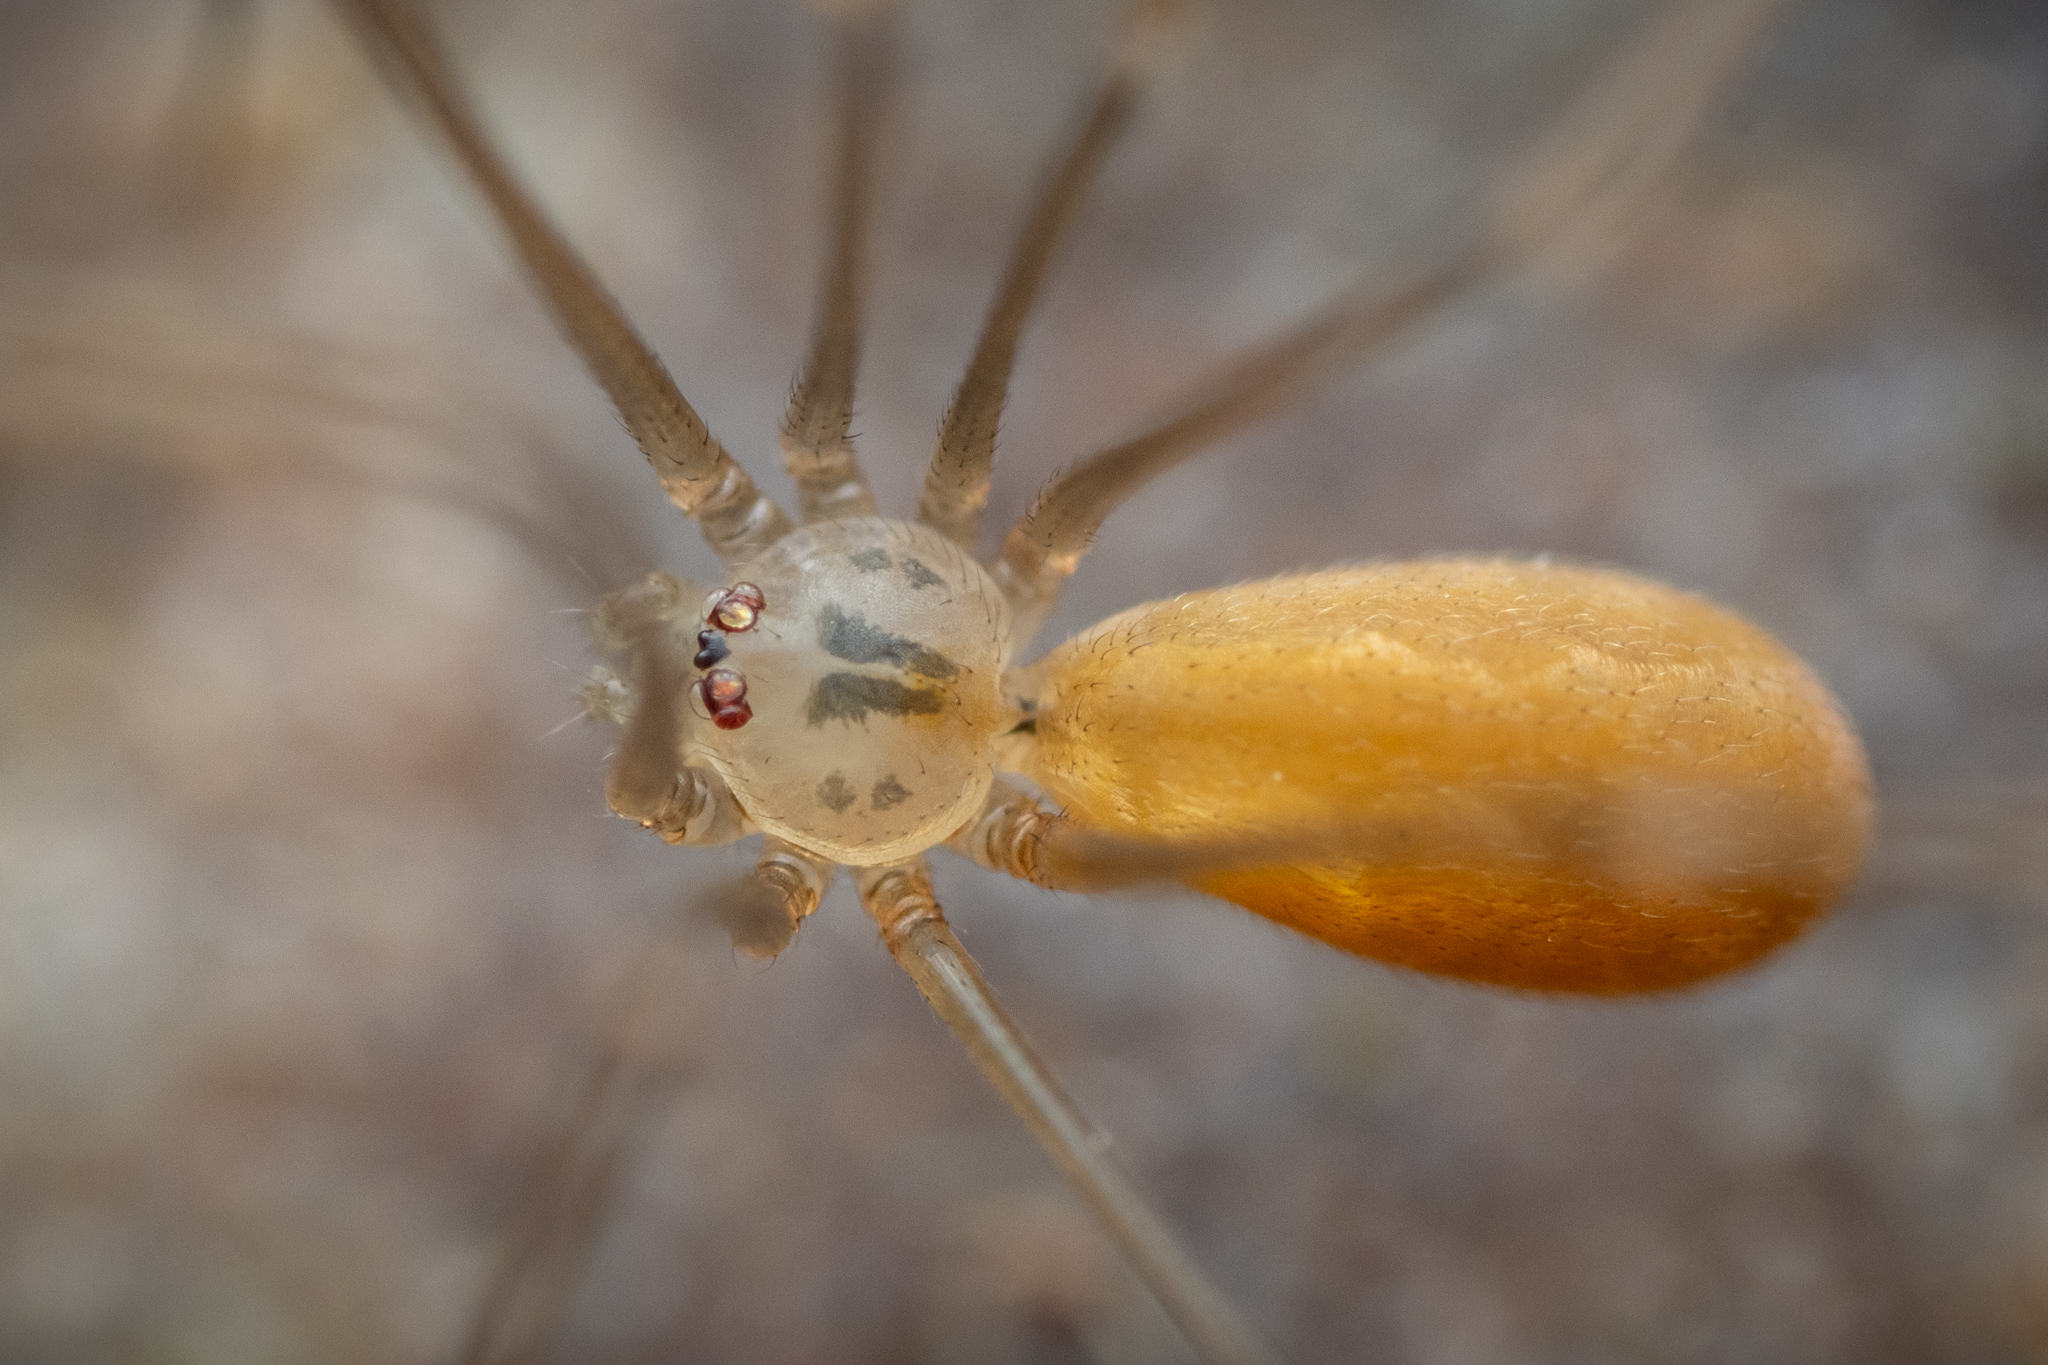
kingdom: Animalia
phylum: Arthropoda
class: Arachnida
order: Araneae
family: Pholcidae
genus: Pholcus
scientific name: Pholcus opilionoides
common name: Daddylongleg spider
